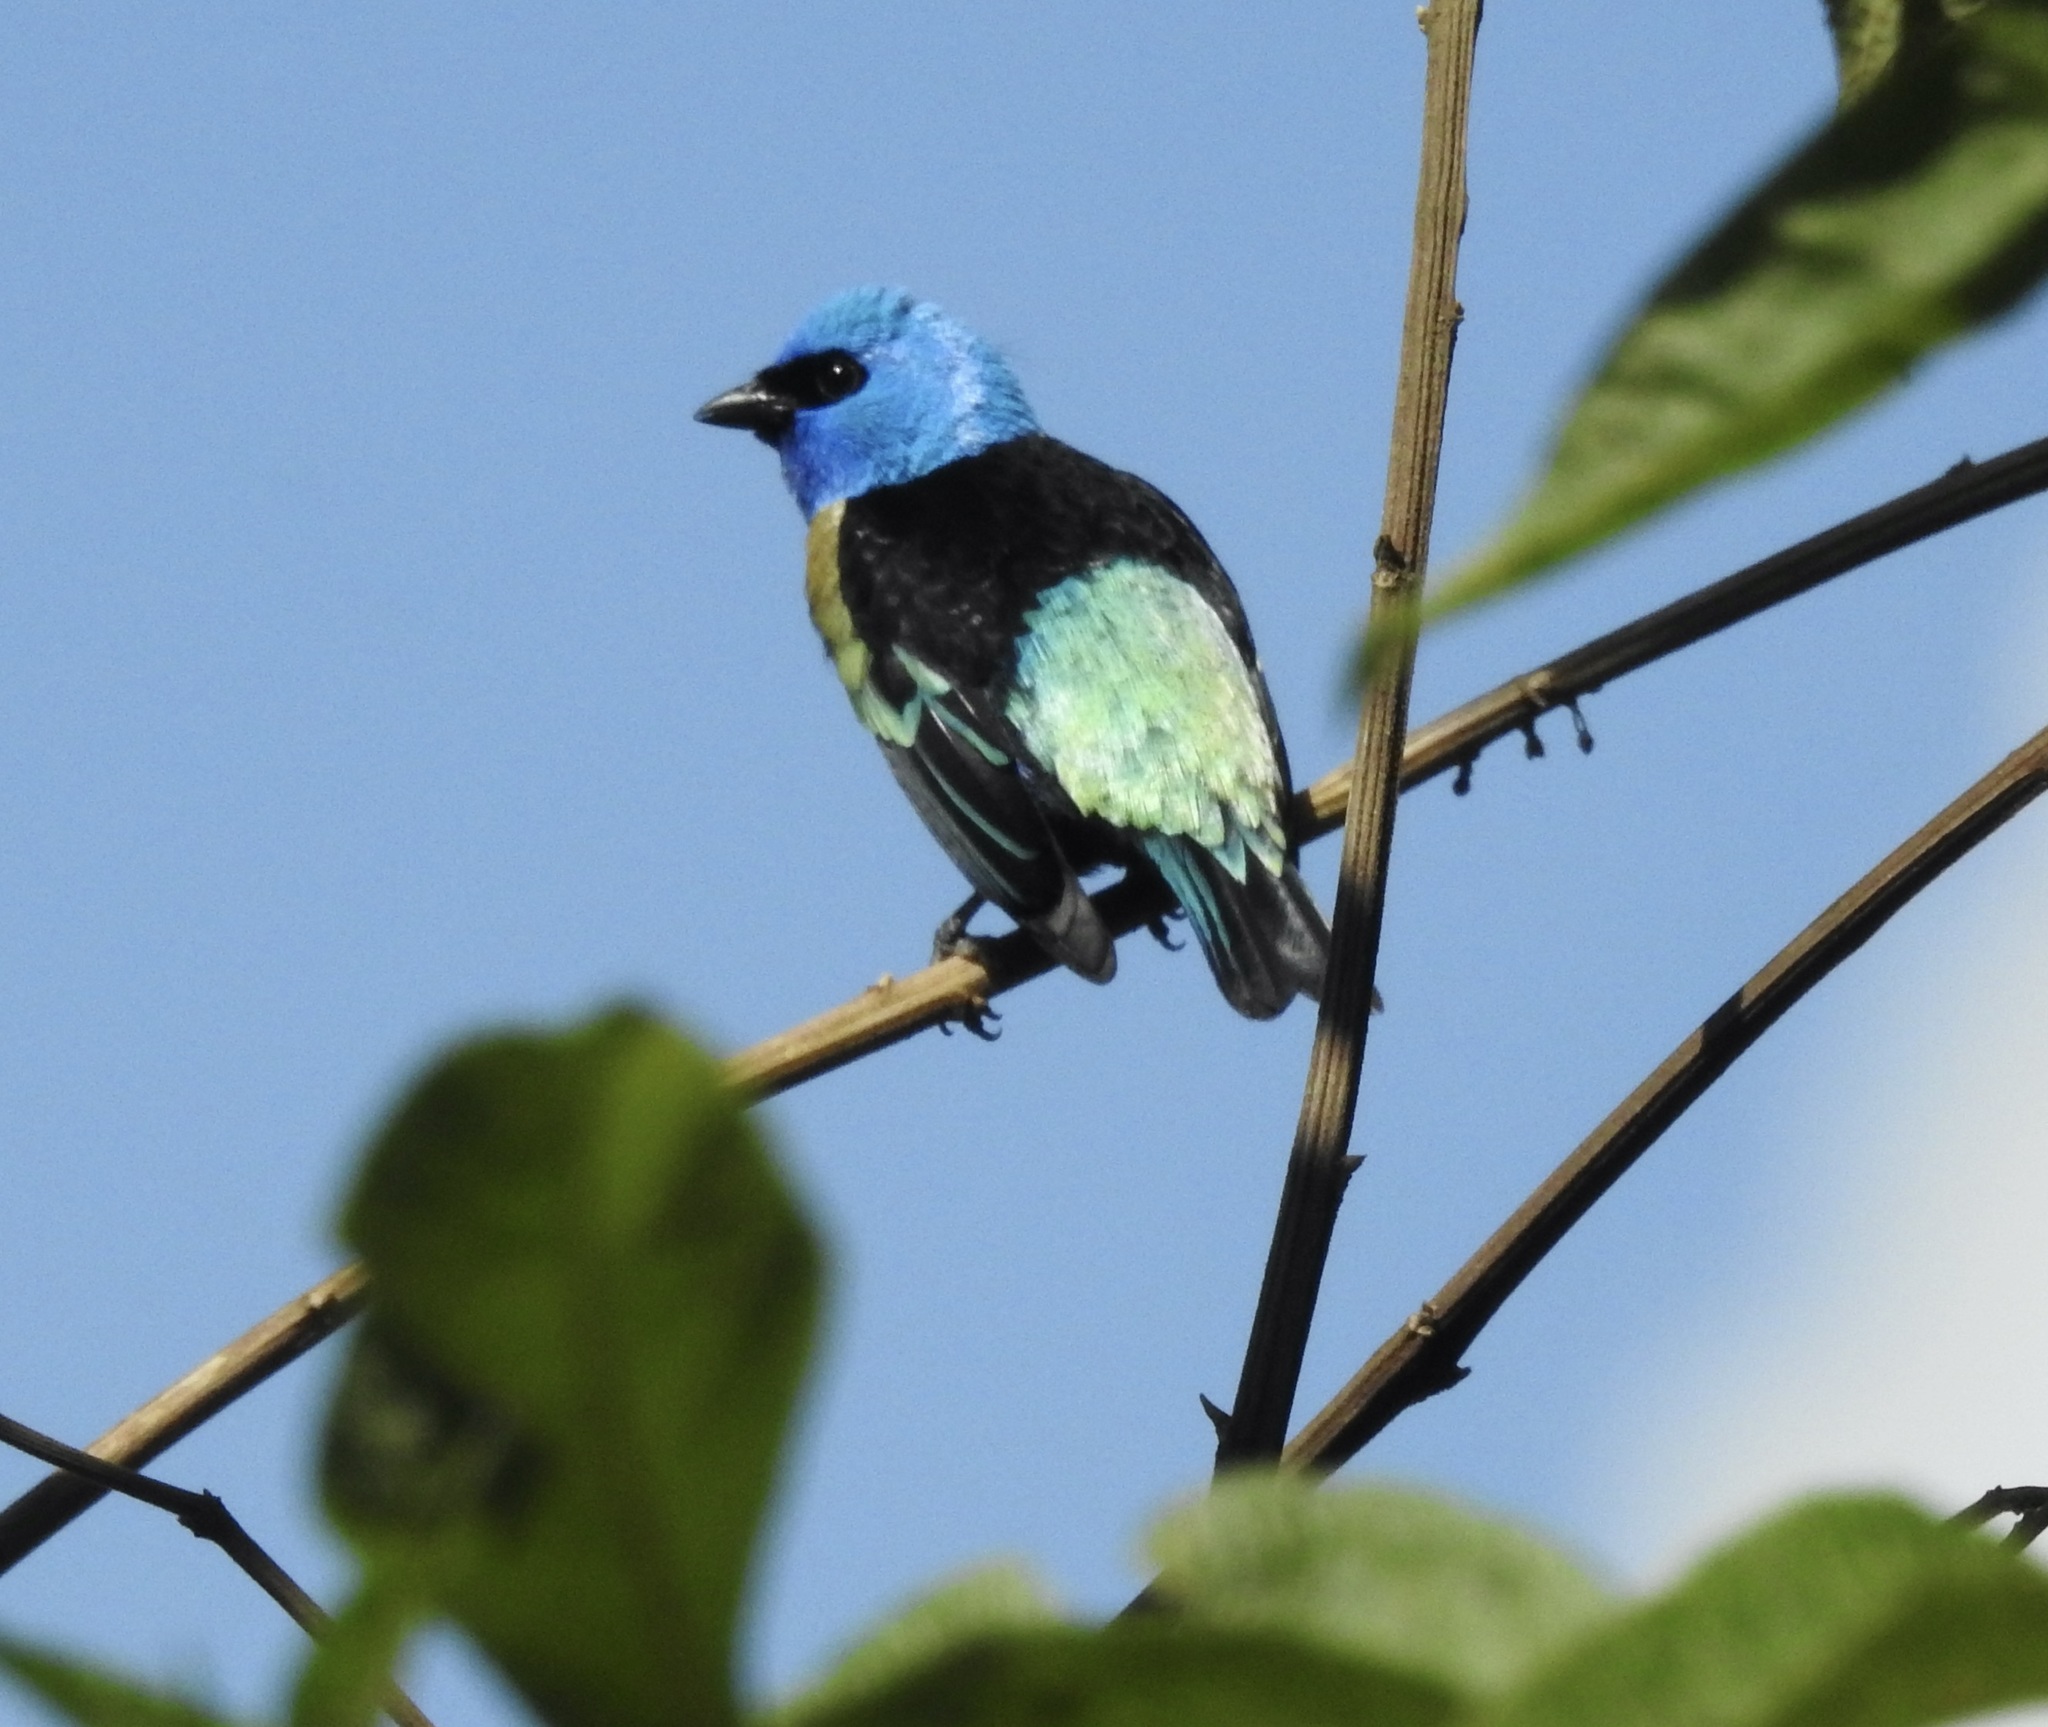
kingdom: Animalia
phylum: Chordata
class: Aves
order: Passeriformes
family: Thraupidae
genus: Stilpnia
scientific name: Stilpnia cyanicollis
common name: Blue-necked tanager
